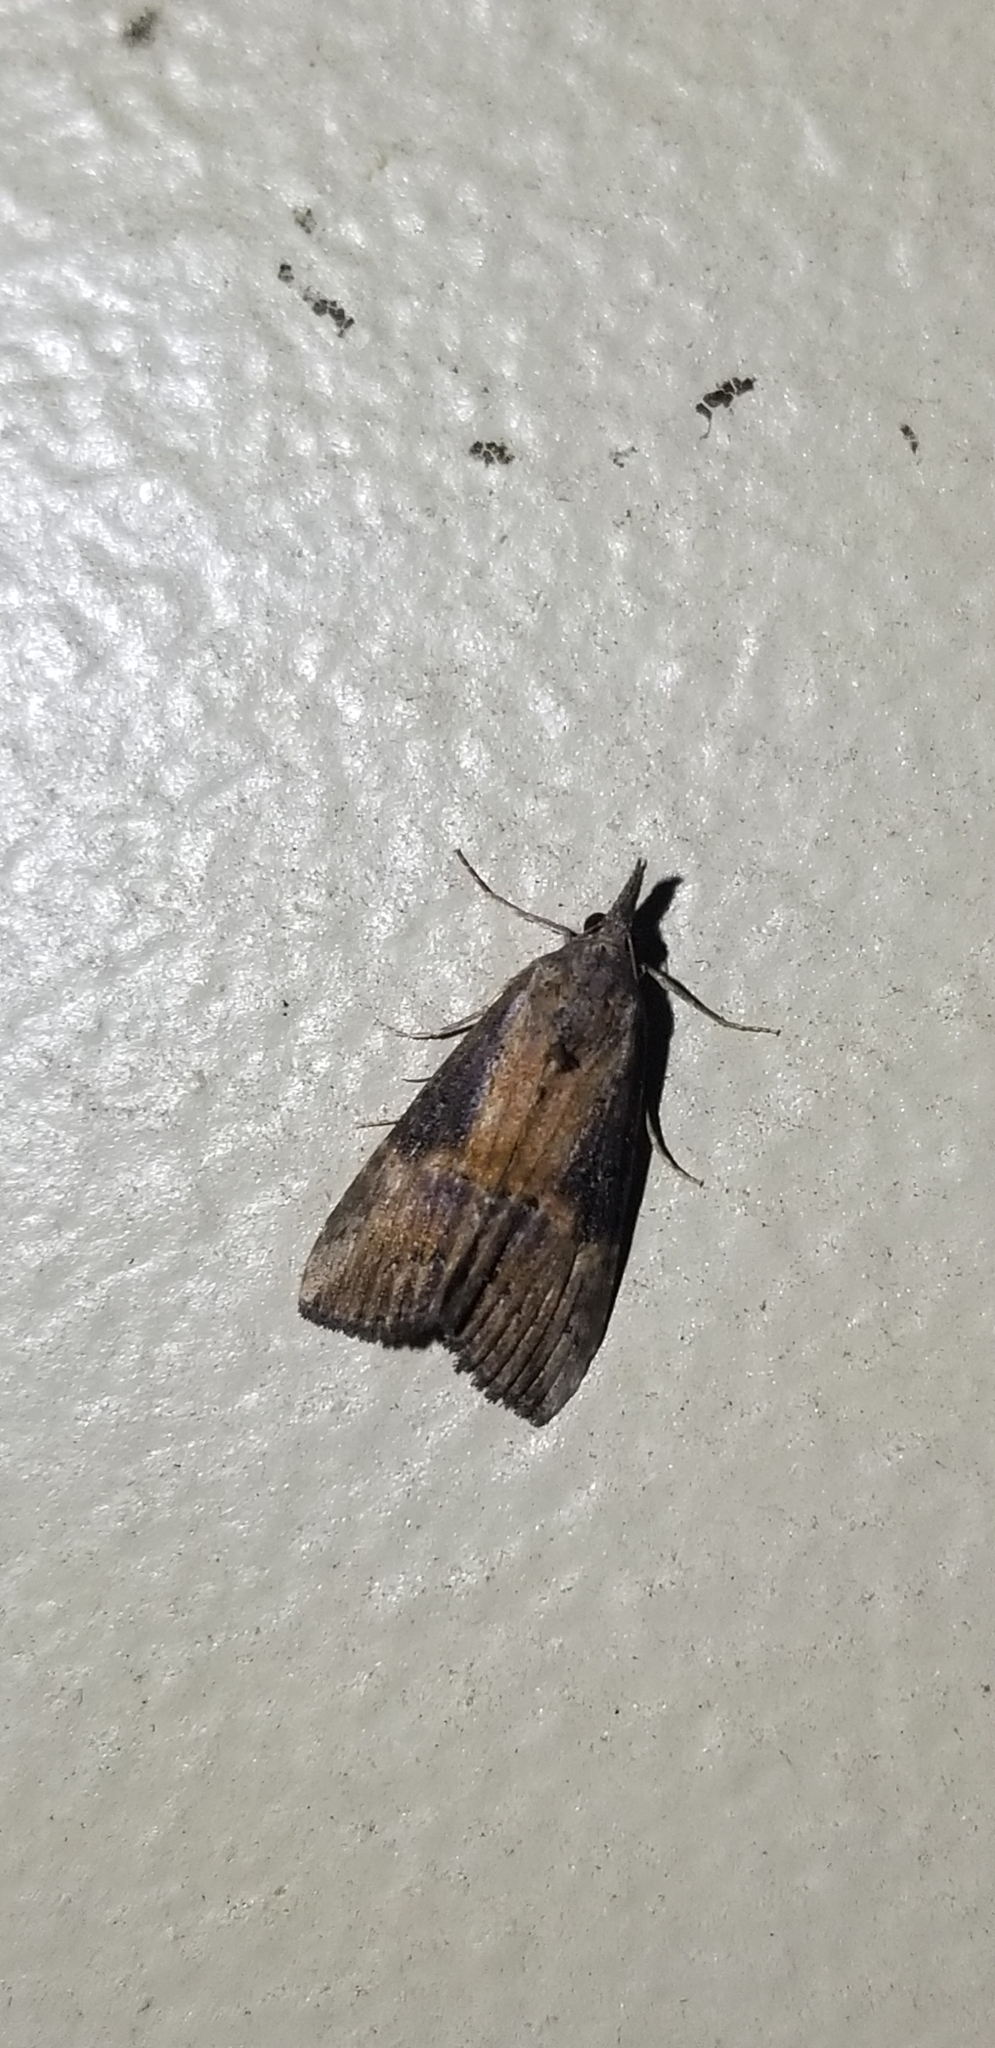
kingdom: Animalia
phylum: Arthropoda
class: Insecta
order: Lepidoptera
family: Erebidae
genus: Hypena
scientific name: Hypena scabra
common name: Green cloverworm
